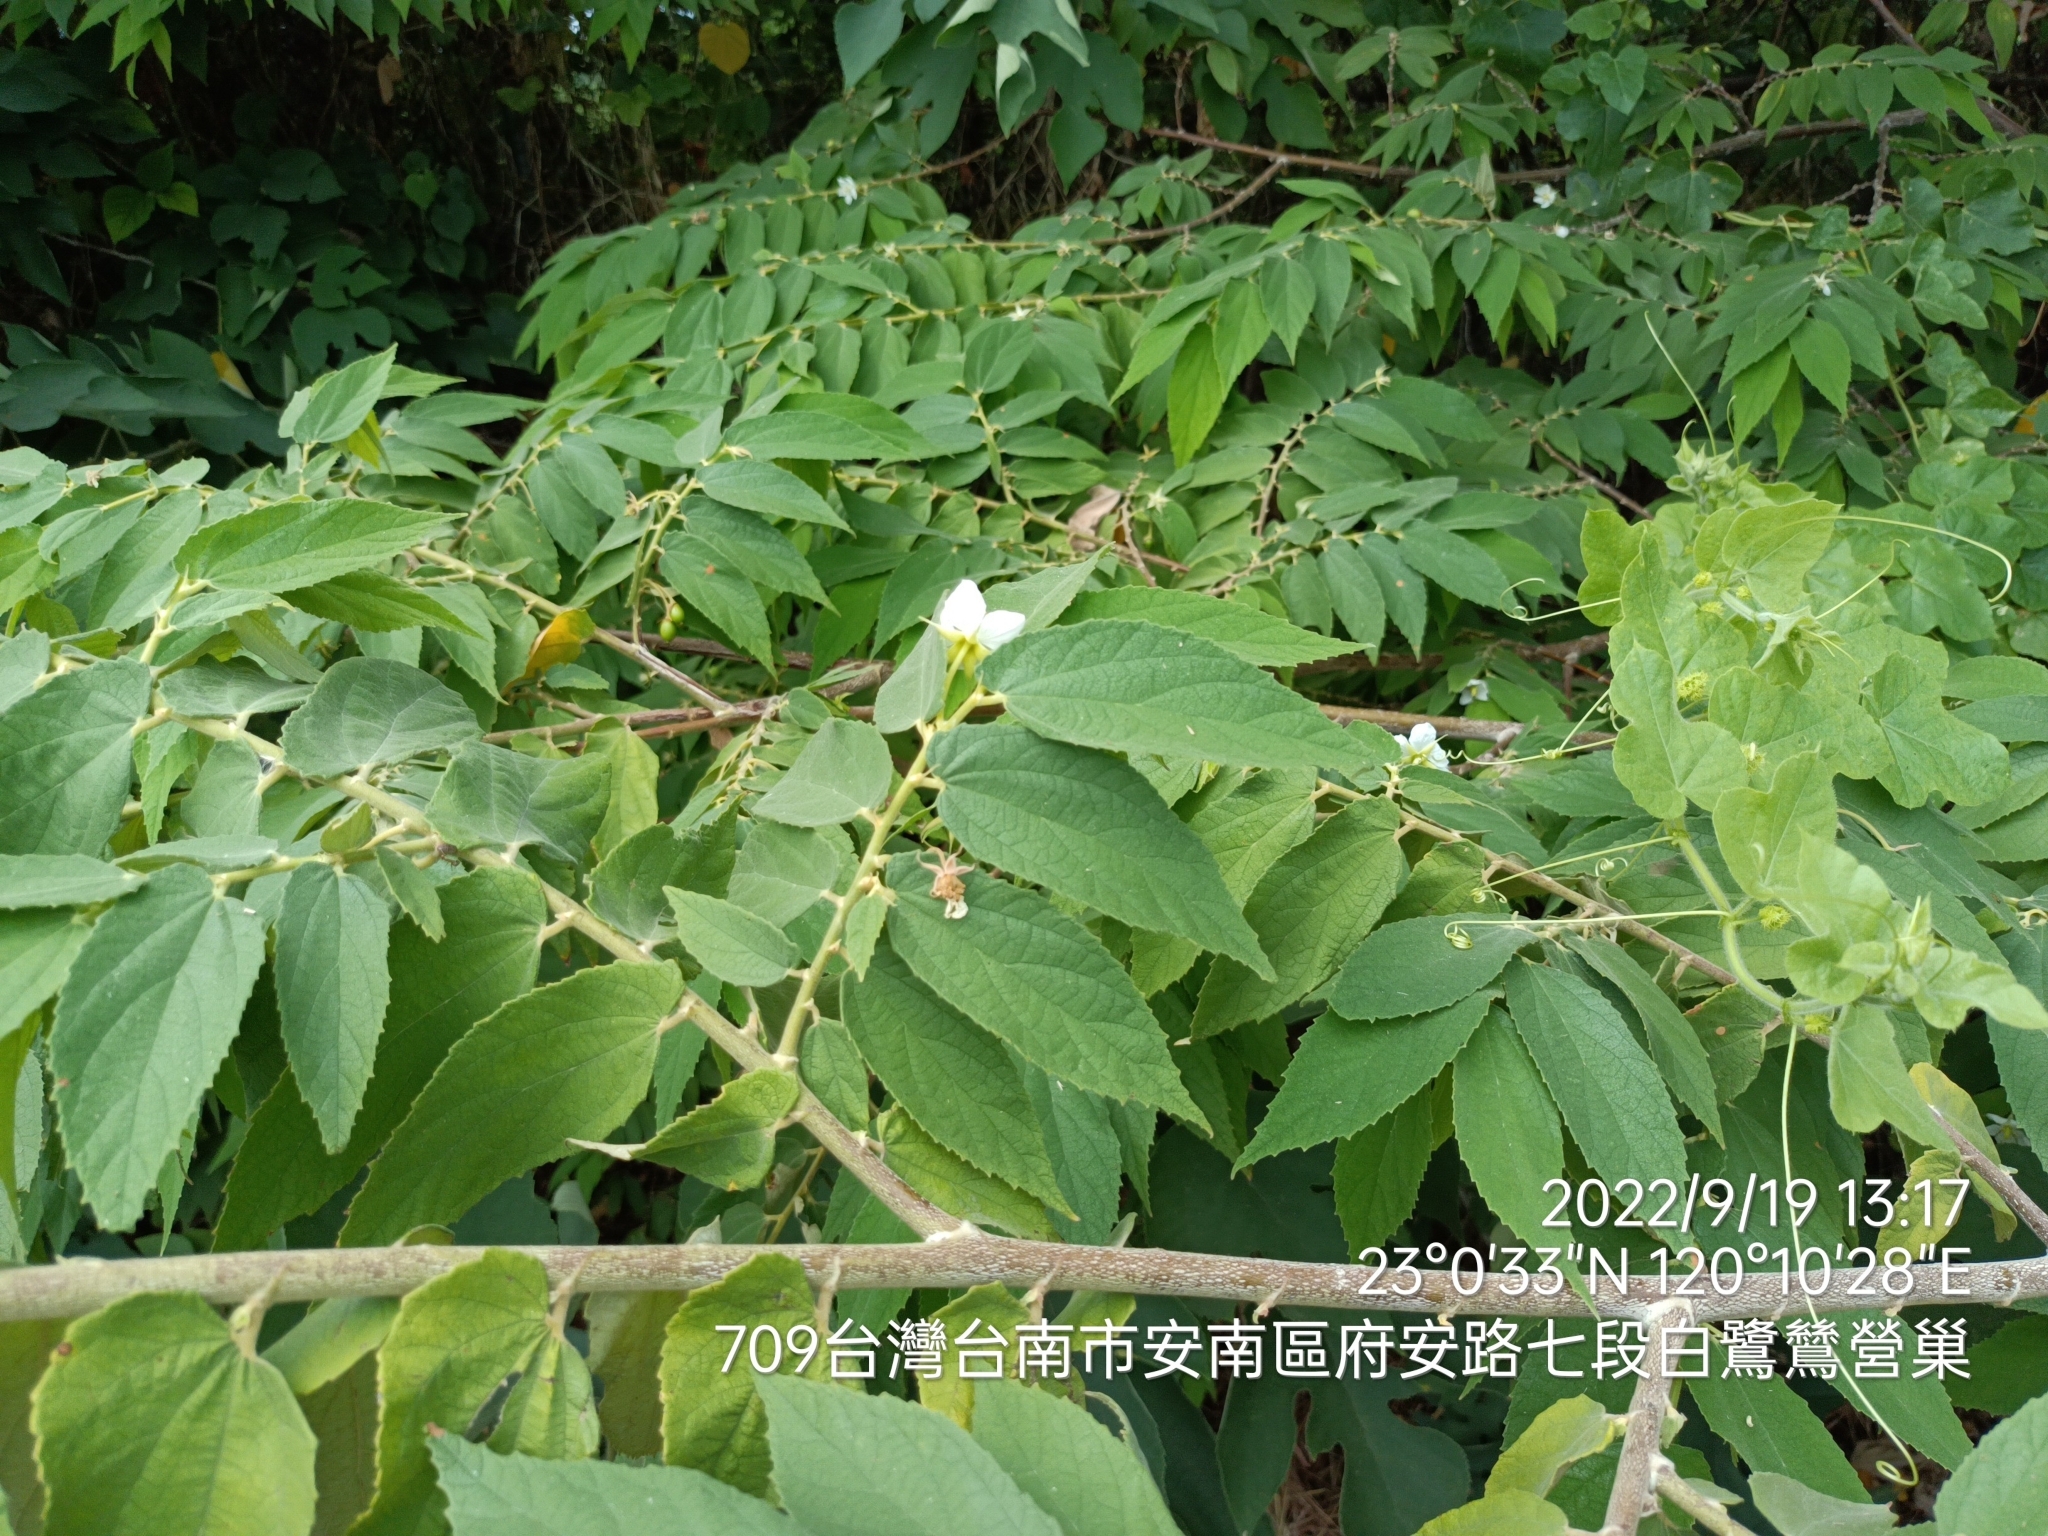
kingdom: Plantae
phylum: Tracheophyta
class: Magnoliopsida
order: Malvales
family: Muntingiaceae
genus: Muntingia
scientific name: Muntingia calabura
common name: Strawberrytree
